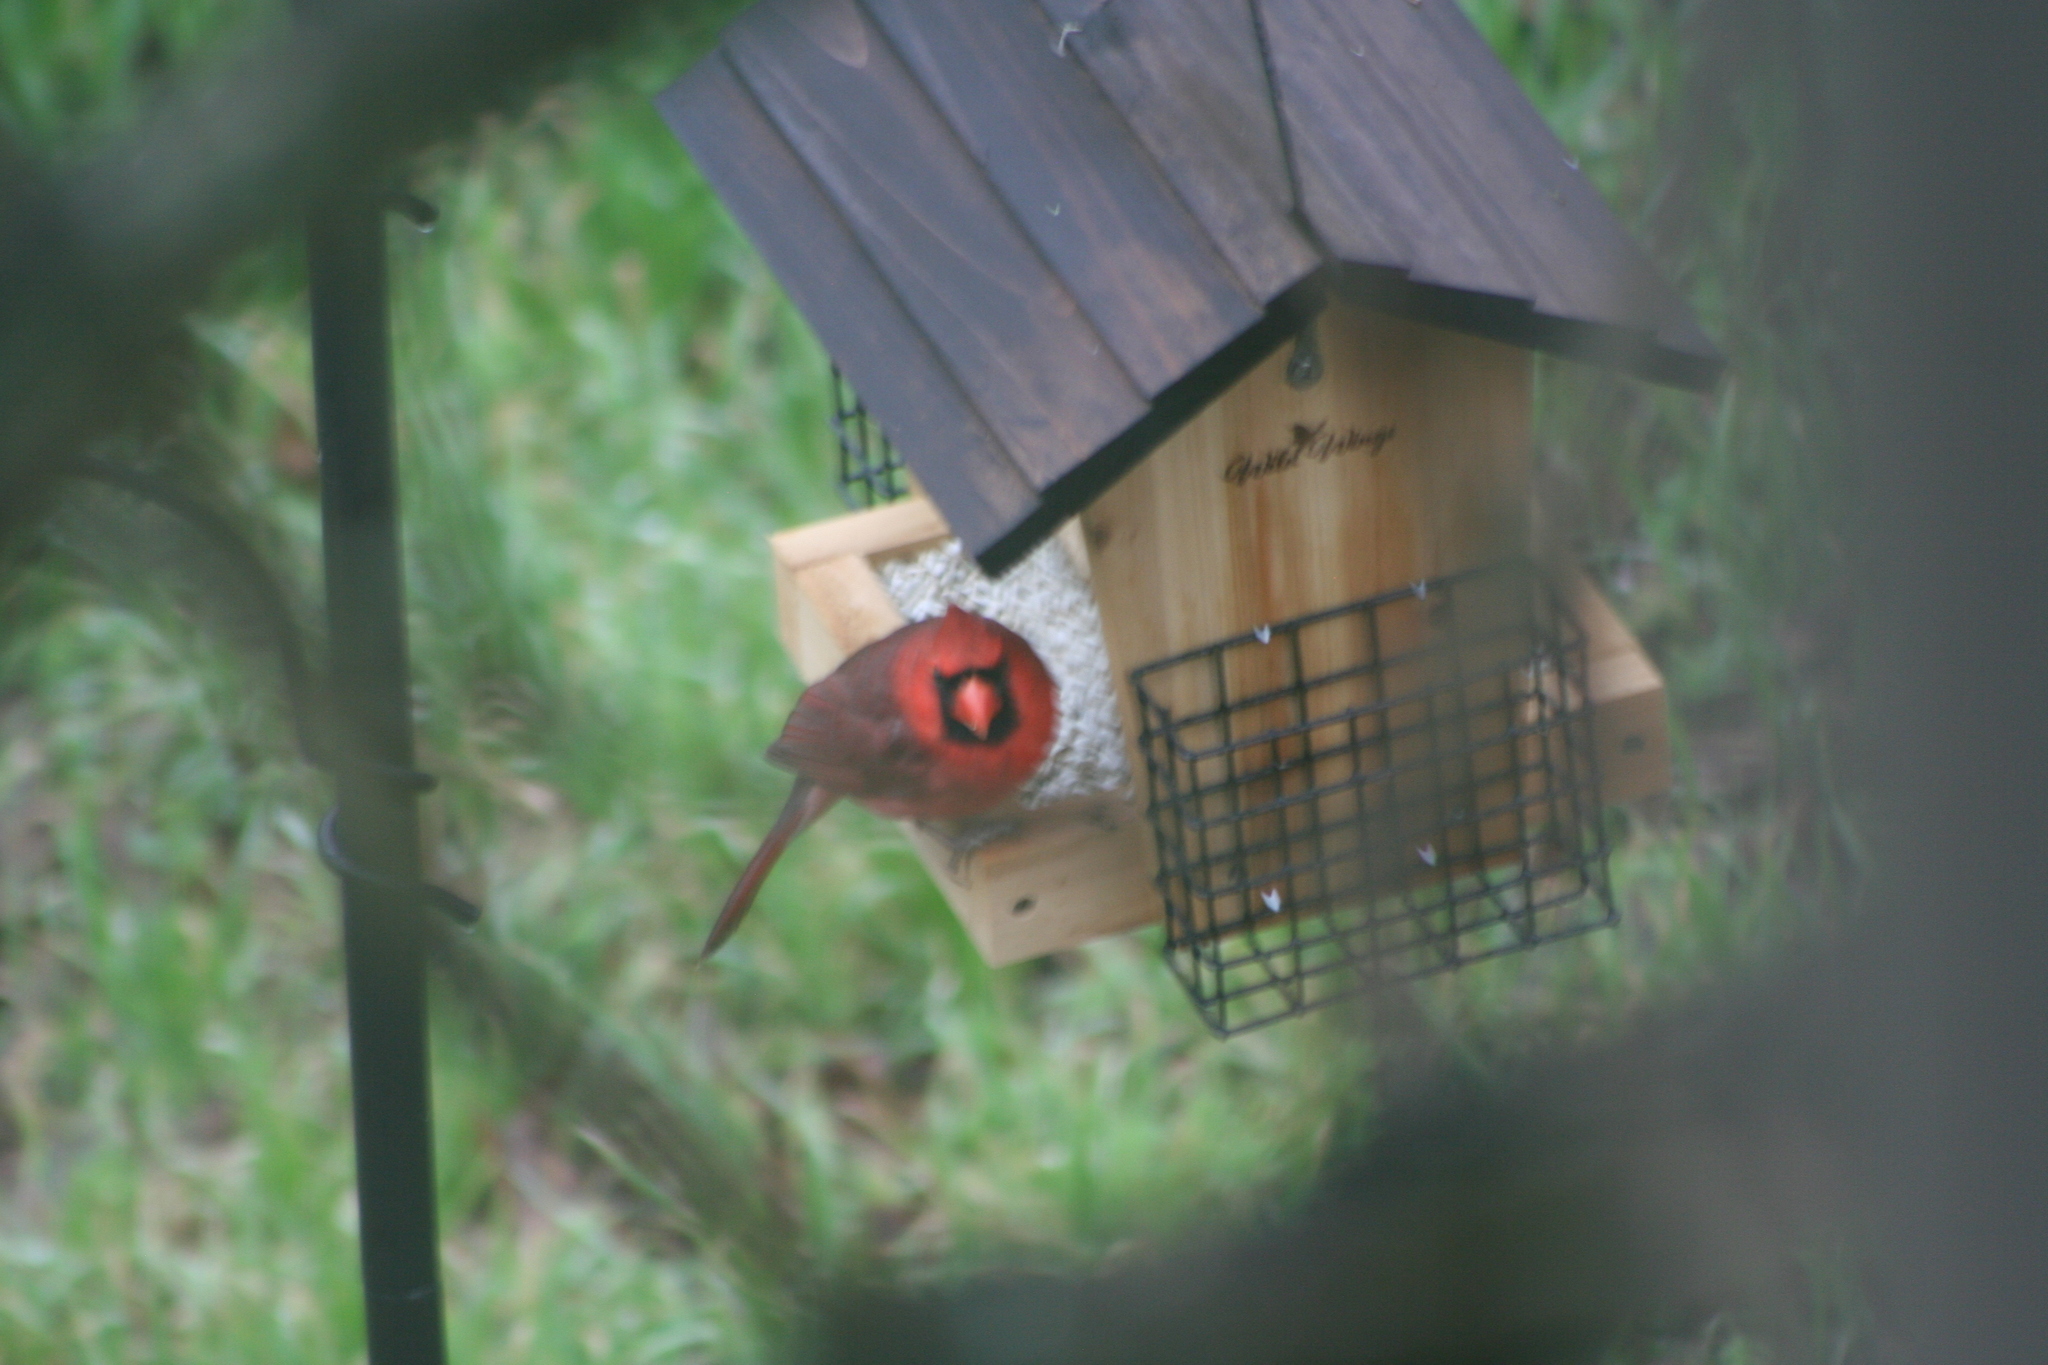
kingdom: Animalia
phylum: Chordata
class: Aves
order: Passeriformes
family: Cardinalidae
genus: Cardinalis
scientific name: Cardinalis cardinalis
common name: Northern cardinal
